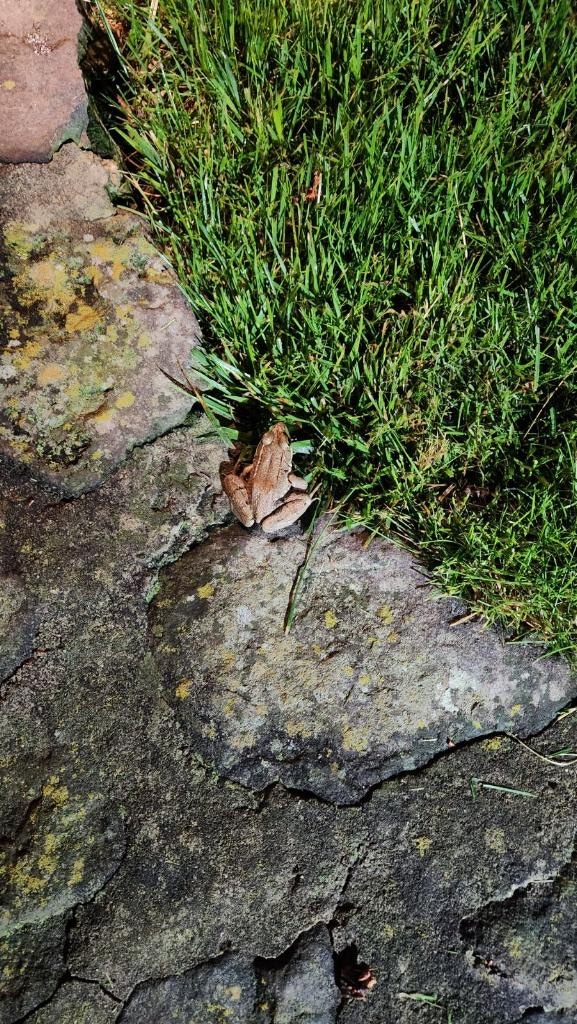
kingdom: Animalia
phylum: Chordata
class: Amphibia
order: Anura
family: Ranidae
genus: Lithobates
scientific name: Lithobates clamitans
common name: Green frog
